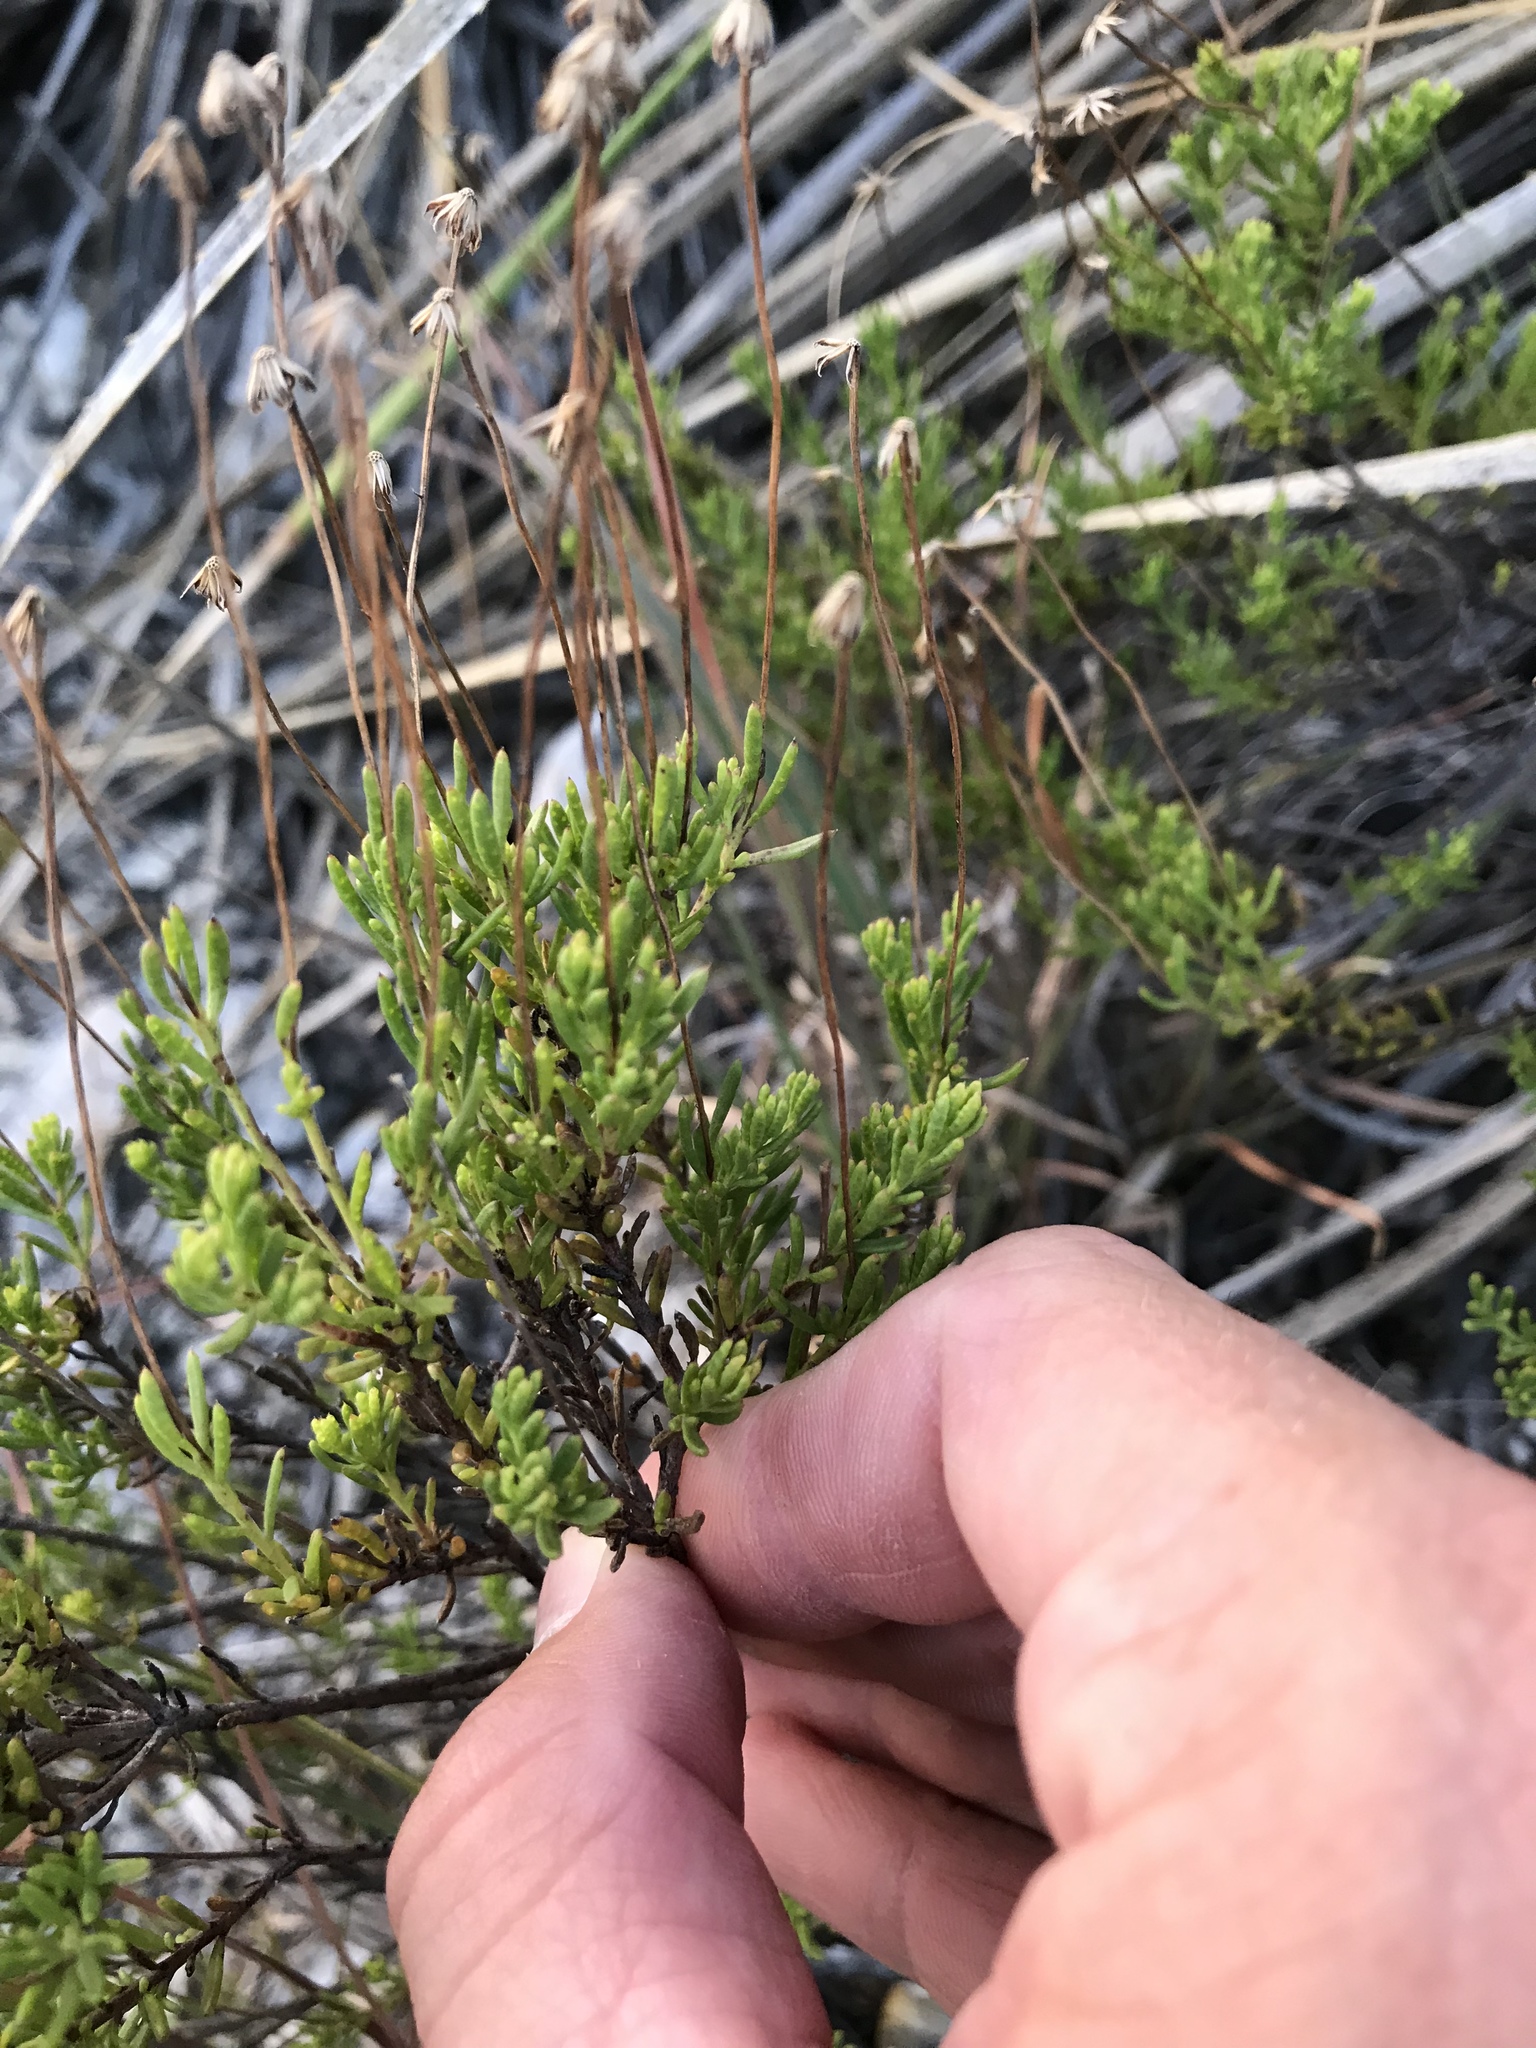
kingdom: Plantae
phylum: Tracheophyta
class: Magnoliopsida
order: Asterales
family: Asteraceae
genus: Chrysactinia
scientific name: Chrysactinia mexicana
